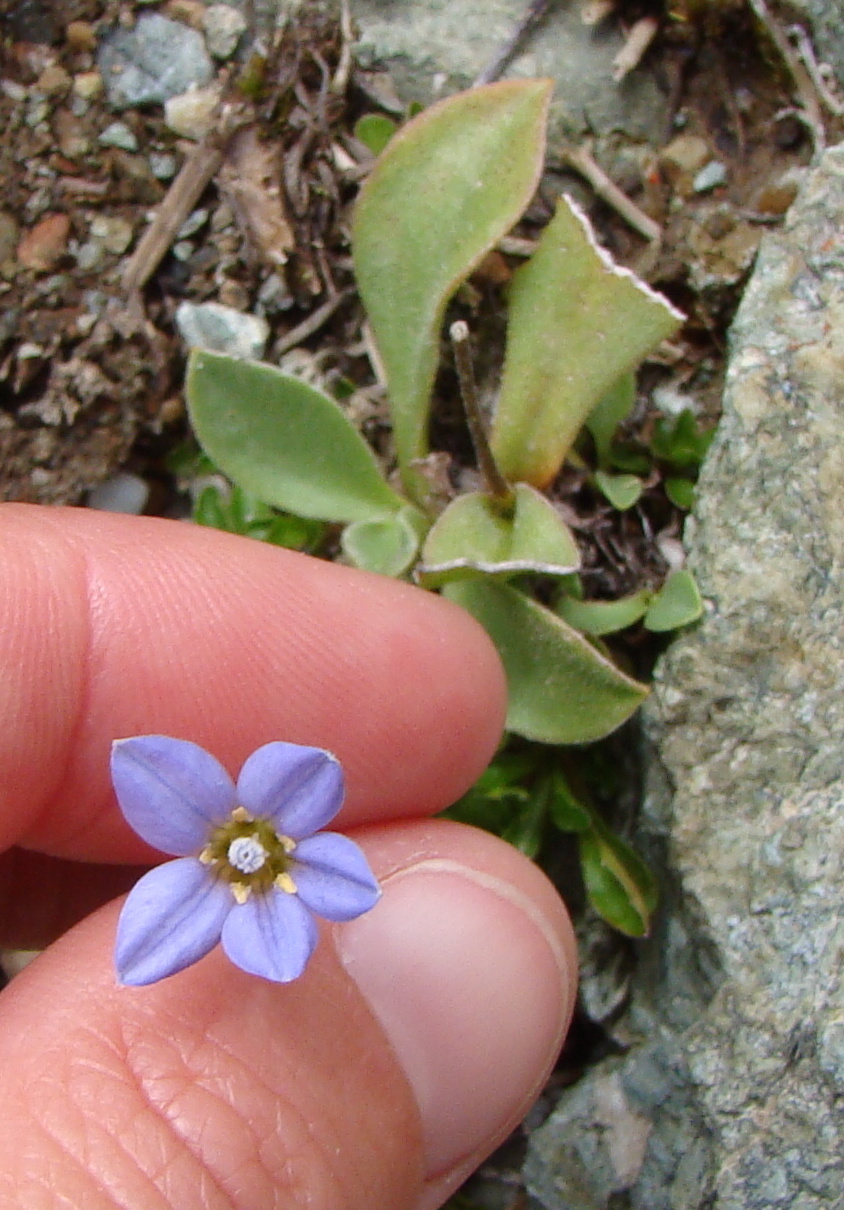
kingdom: Plantae
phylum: Tracheophyta
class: Magnoliopsida
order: Asterales
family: Campanulaceae
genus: Wahlenbergia
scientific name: Wahlenbergia albomarginata
